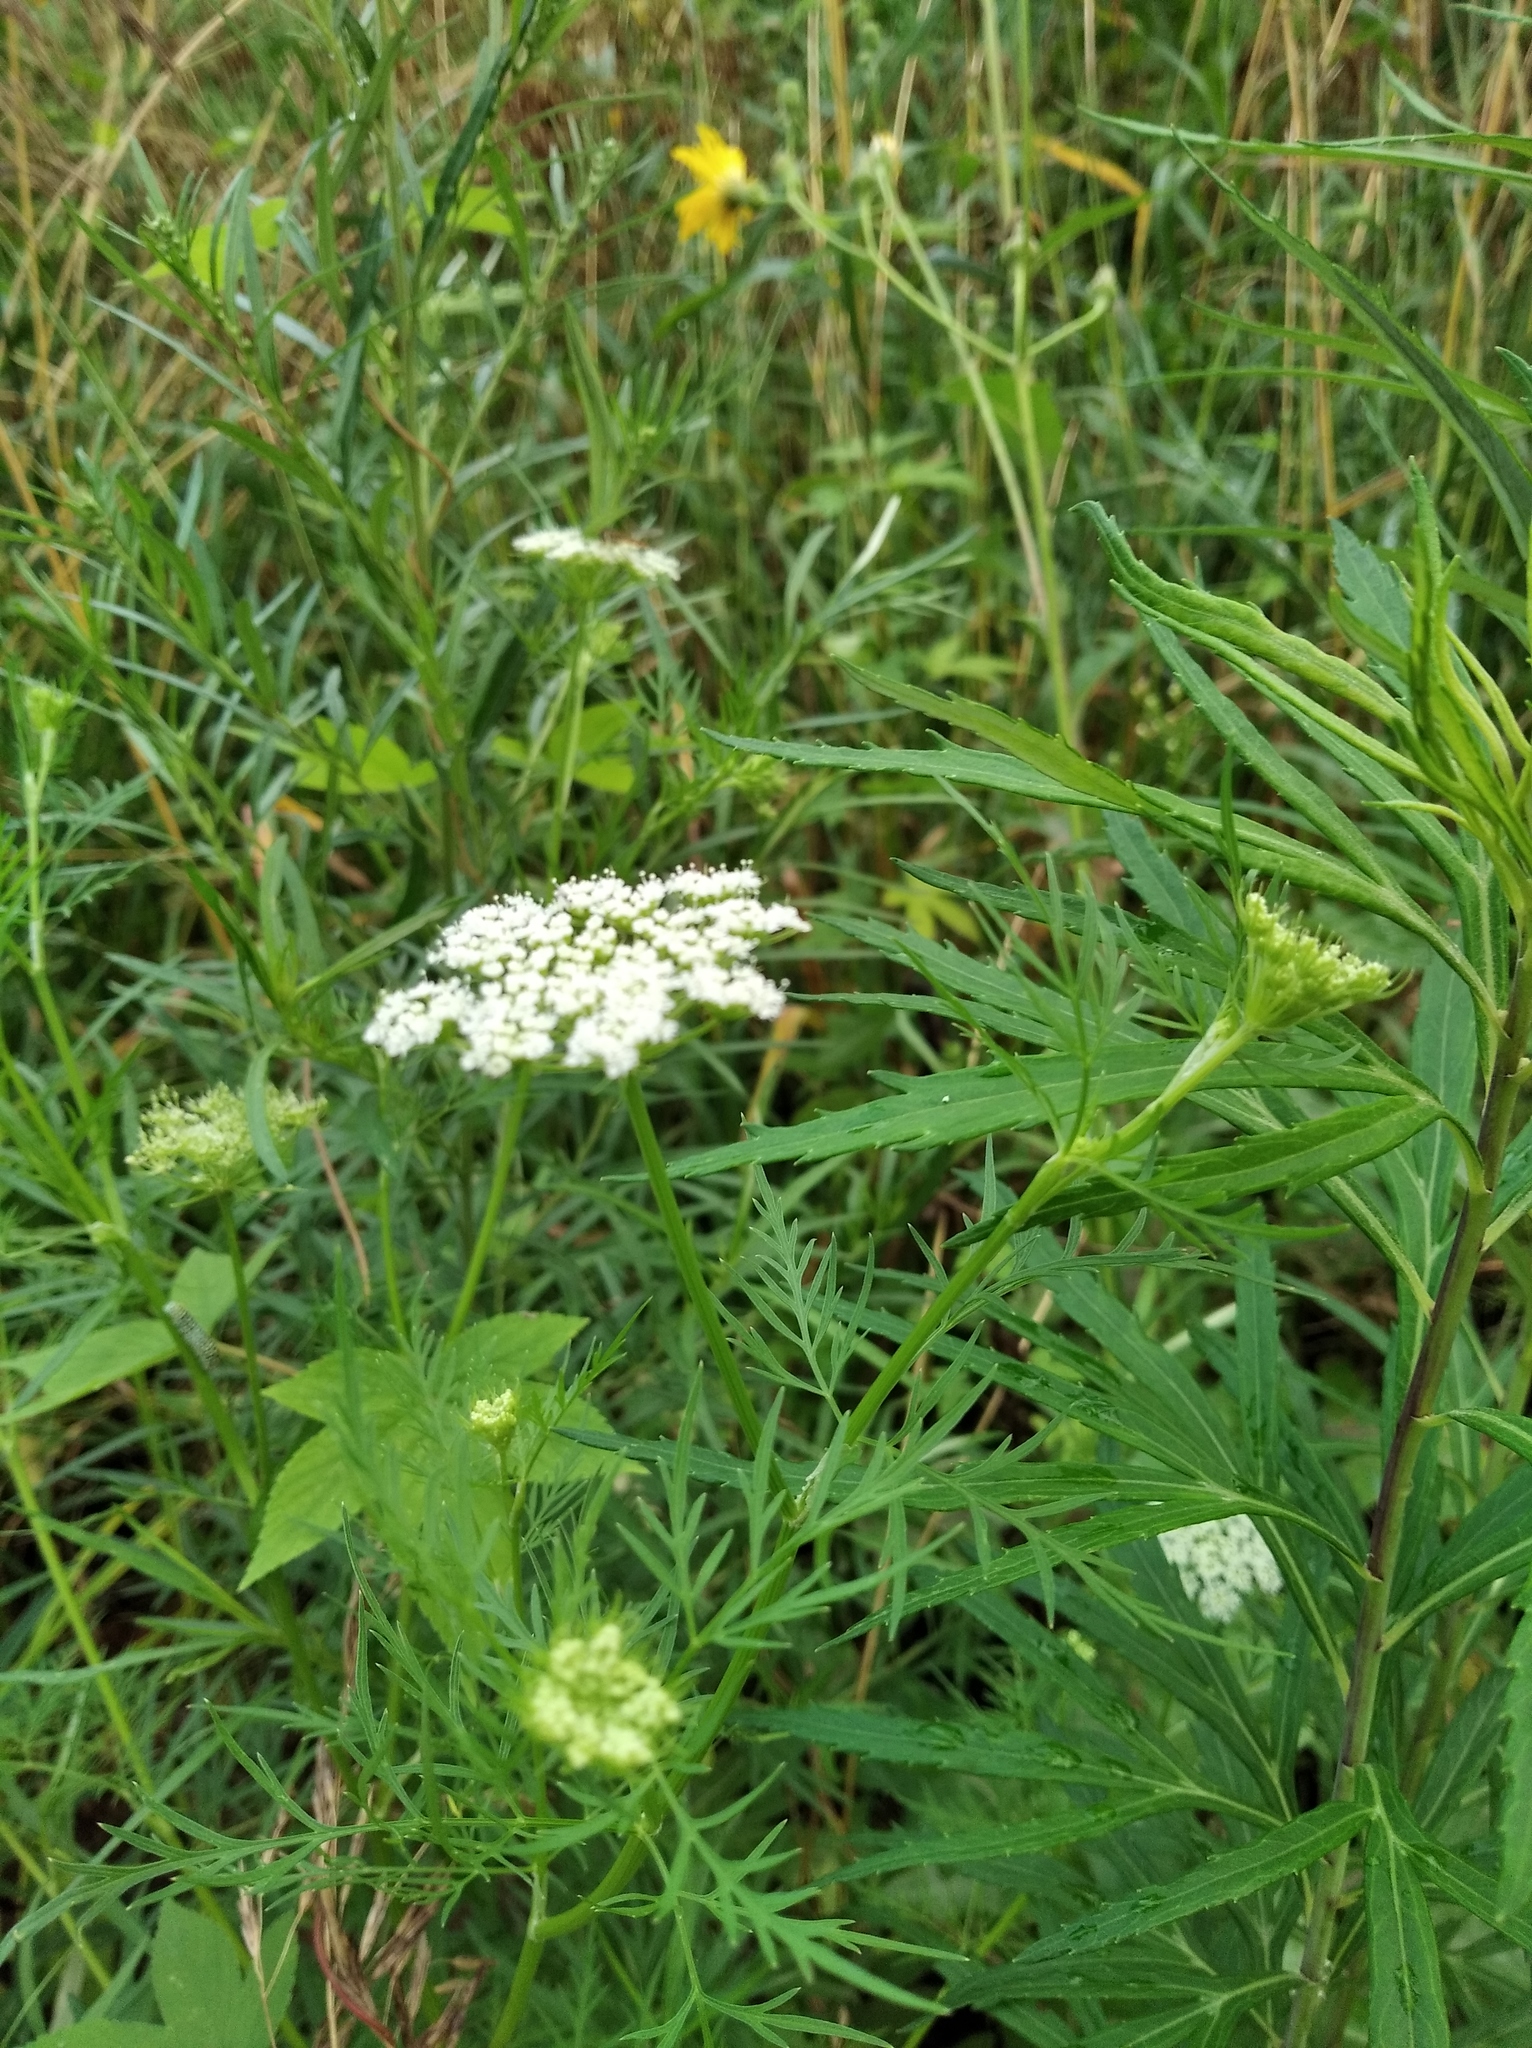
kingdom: Plantae
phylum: Tracheophyta
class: Magnoliopsida
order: Apiales
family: Apiaceae
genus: Cnidium
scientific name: Cnidium monnieri
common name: Monnier's snowparsley
